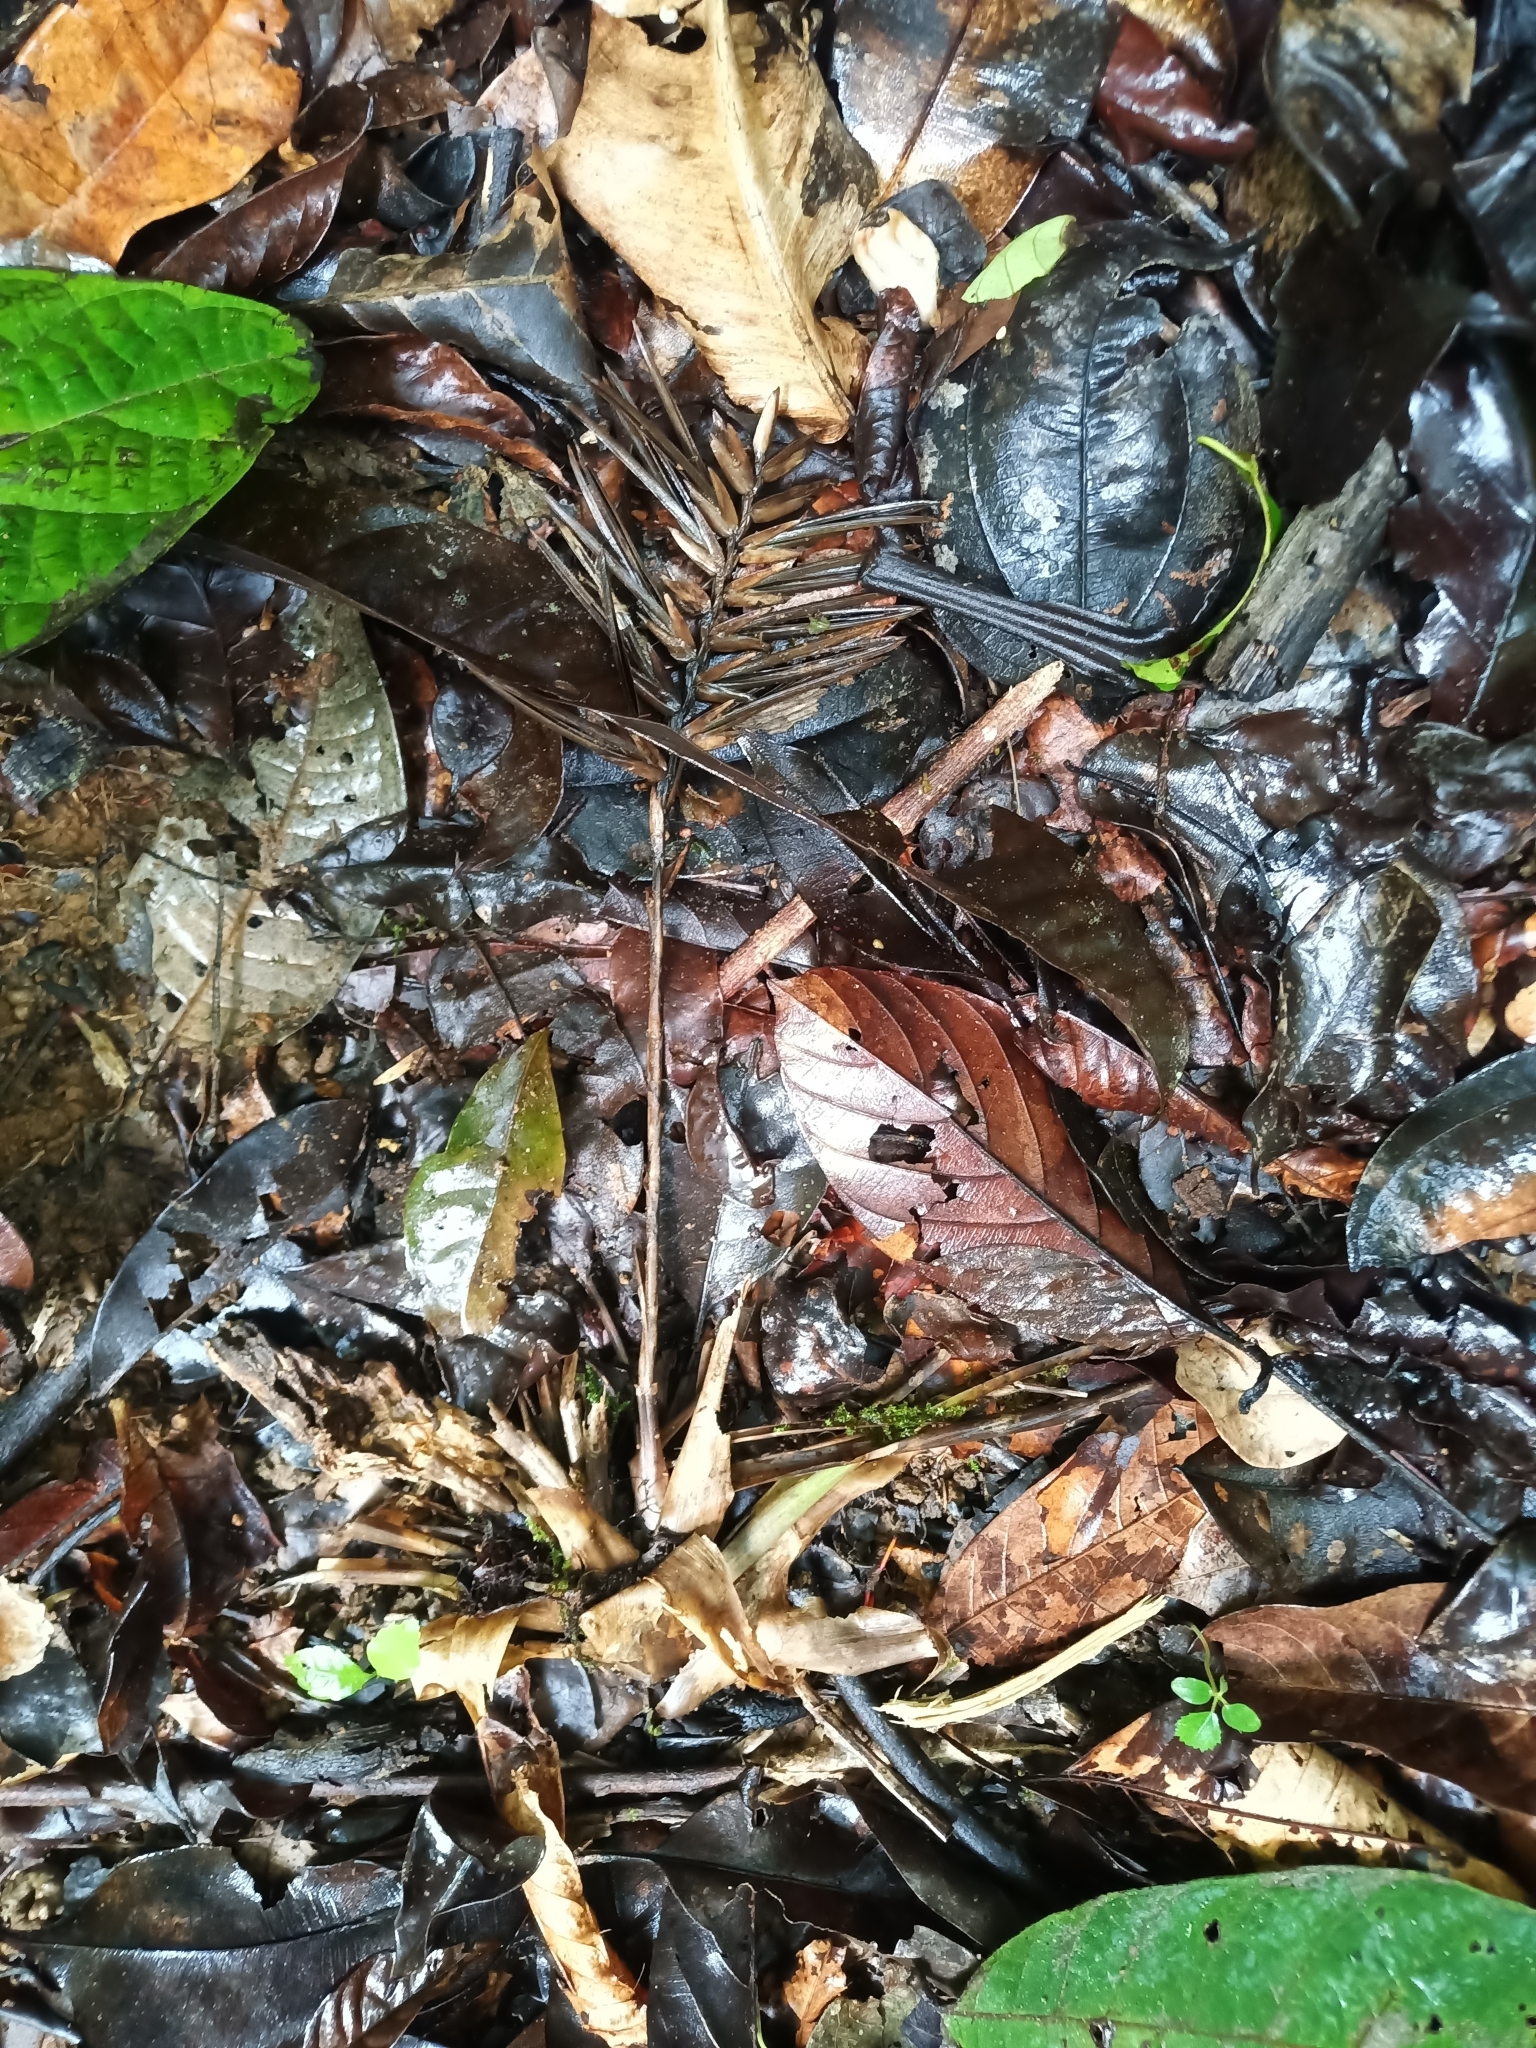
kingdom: Plantae
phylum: Tracheophyta
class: Liliopsida
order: Poales
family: Bromeliaceae
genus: Lemeltonia
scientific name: Lemeltonia monadelpha
